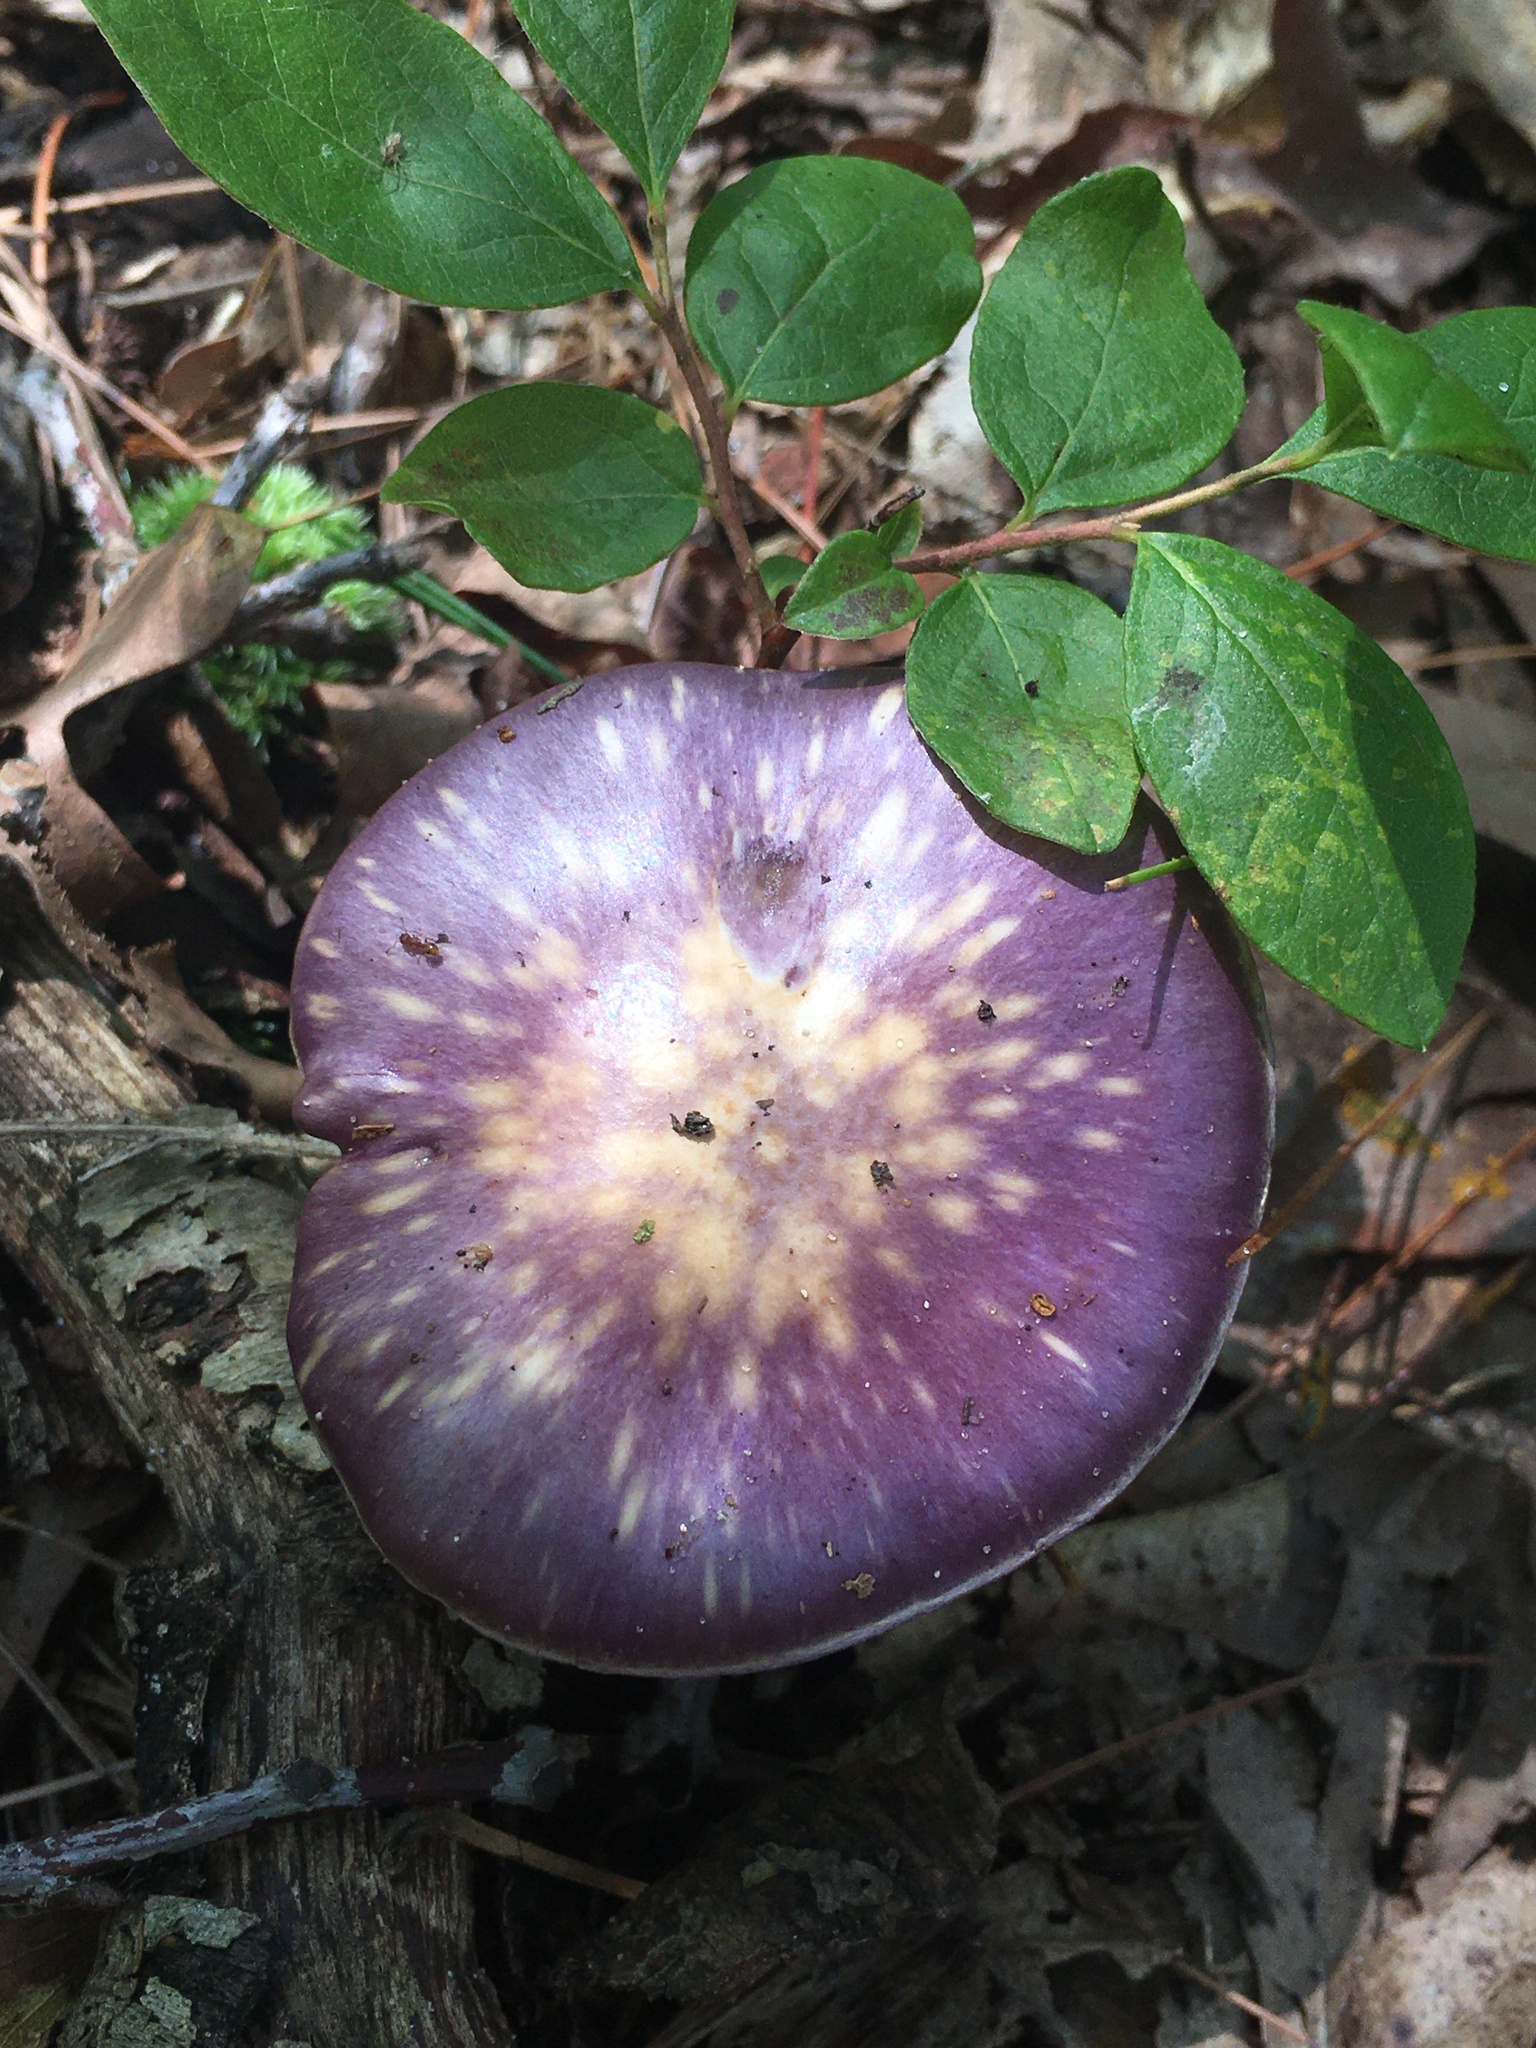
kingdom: Fungi
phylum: Basidiomycota
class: Agaricomycetes
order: Agaricales
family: Cortinariaceae
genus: Cortinarius
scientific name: Cortinarius iodes
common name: Viscid violet cort
